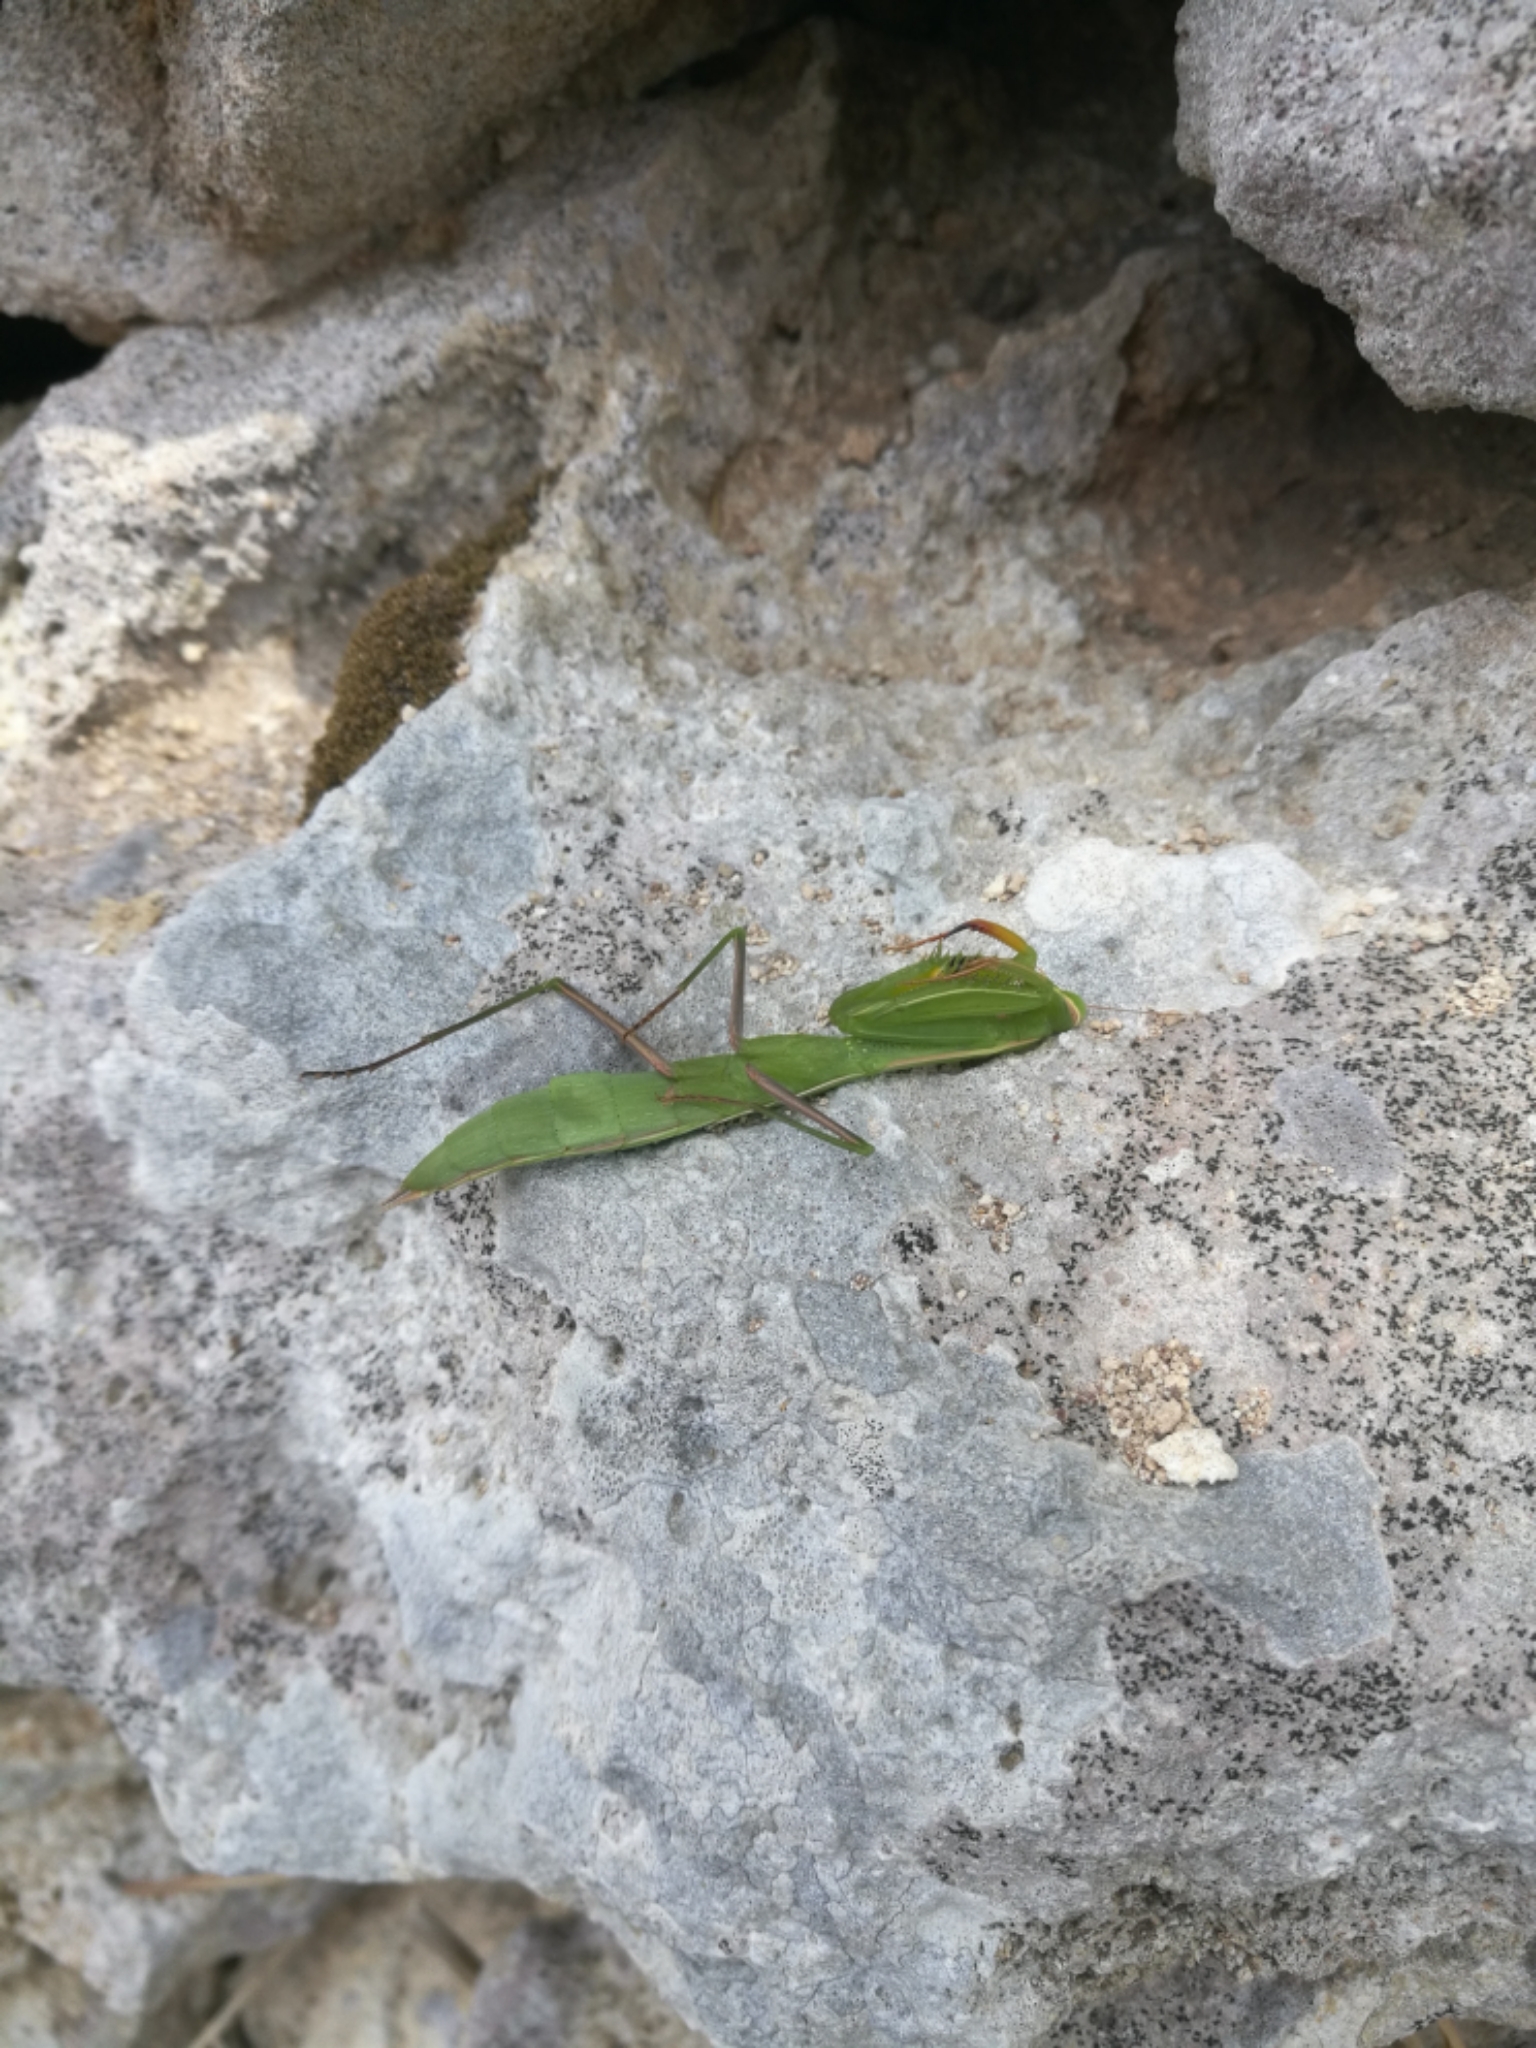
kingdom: Animalia
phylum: Arthropoda
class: Insecta
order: Mantodea
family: Mantidae
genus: Mantis
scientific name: Mantis religiosa
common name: Praying mantis
